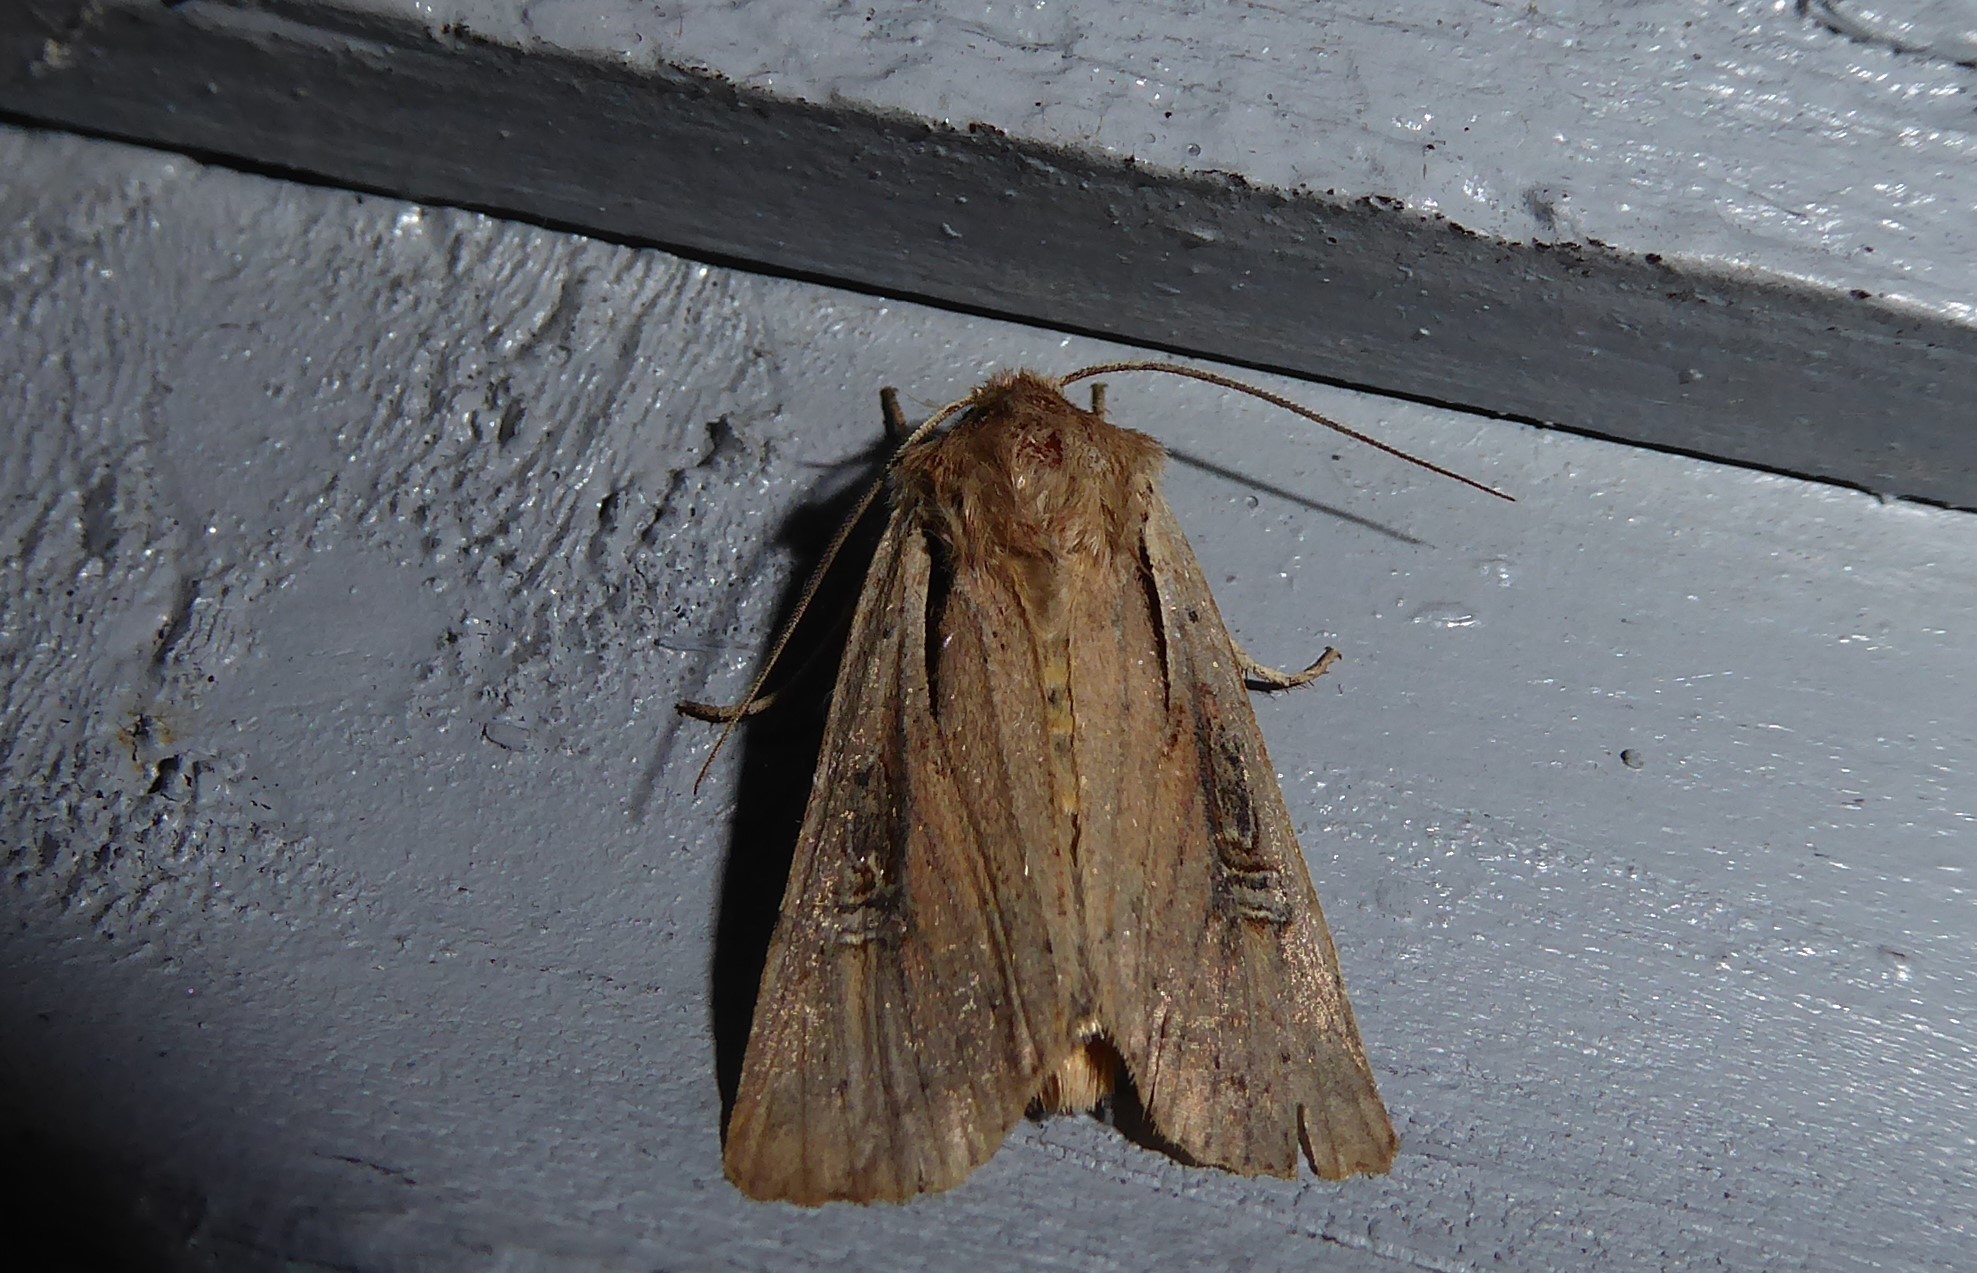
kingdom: Animalia
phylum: Arthropoda
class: Insecta
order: Lepidoptera
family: Noctuidae
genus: Ichneutica
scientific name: Ichneutica atristriga
